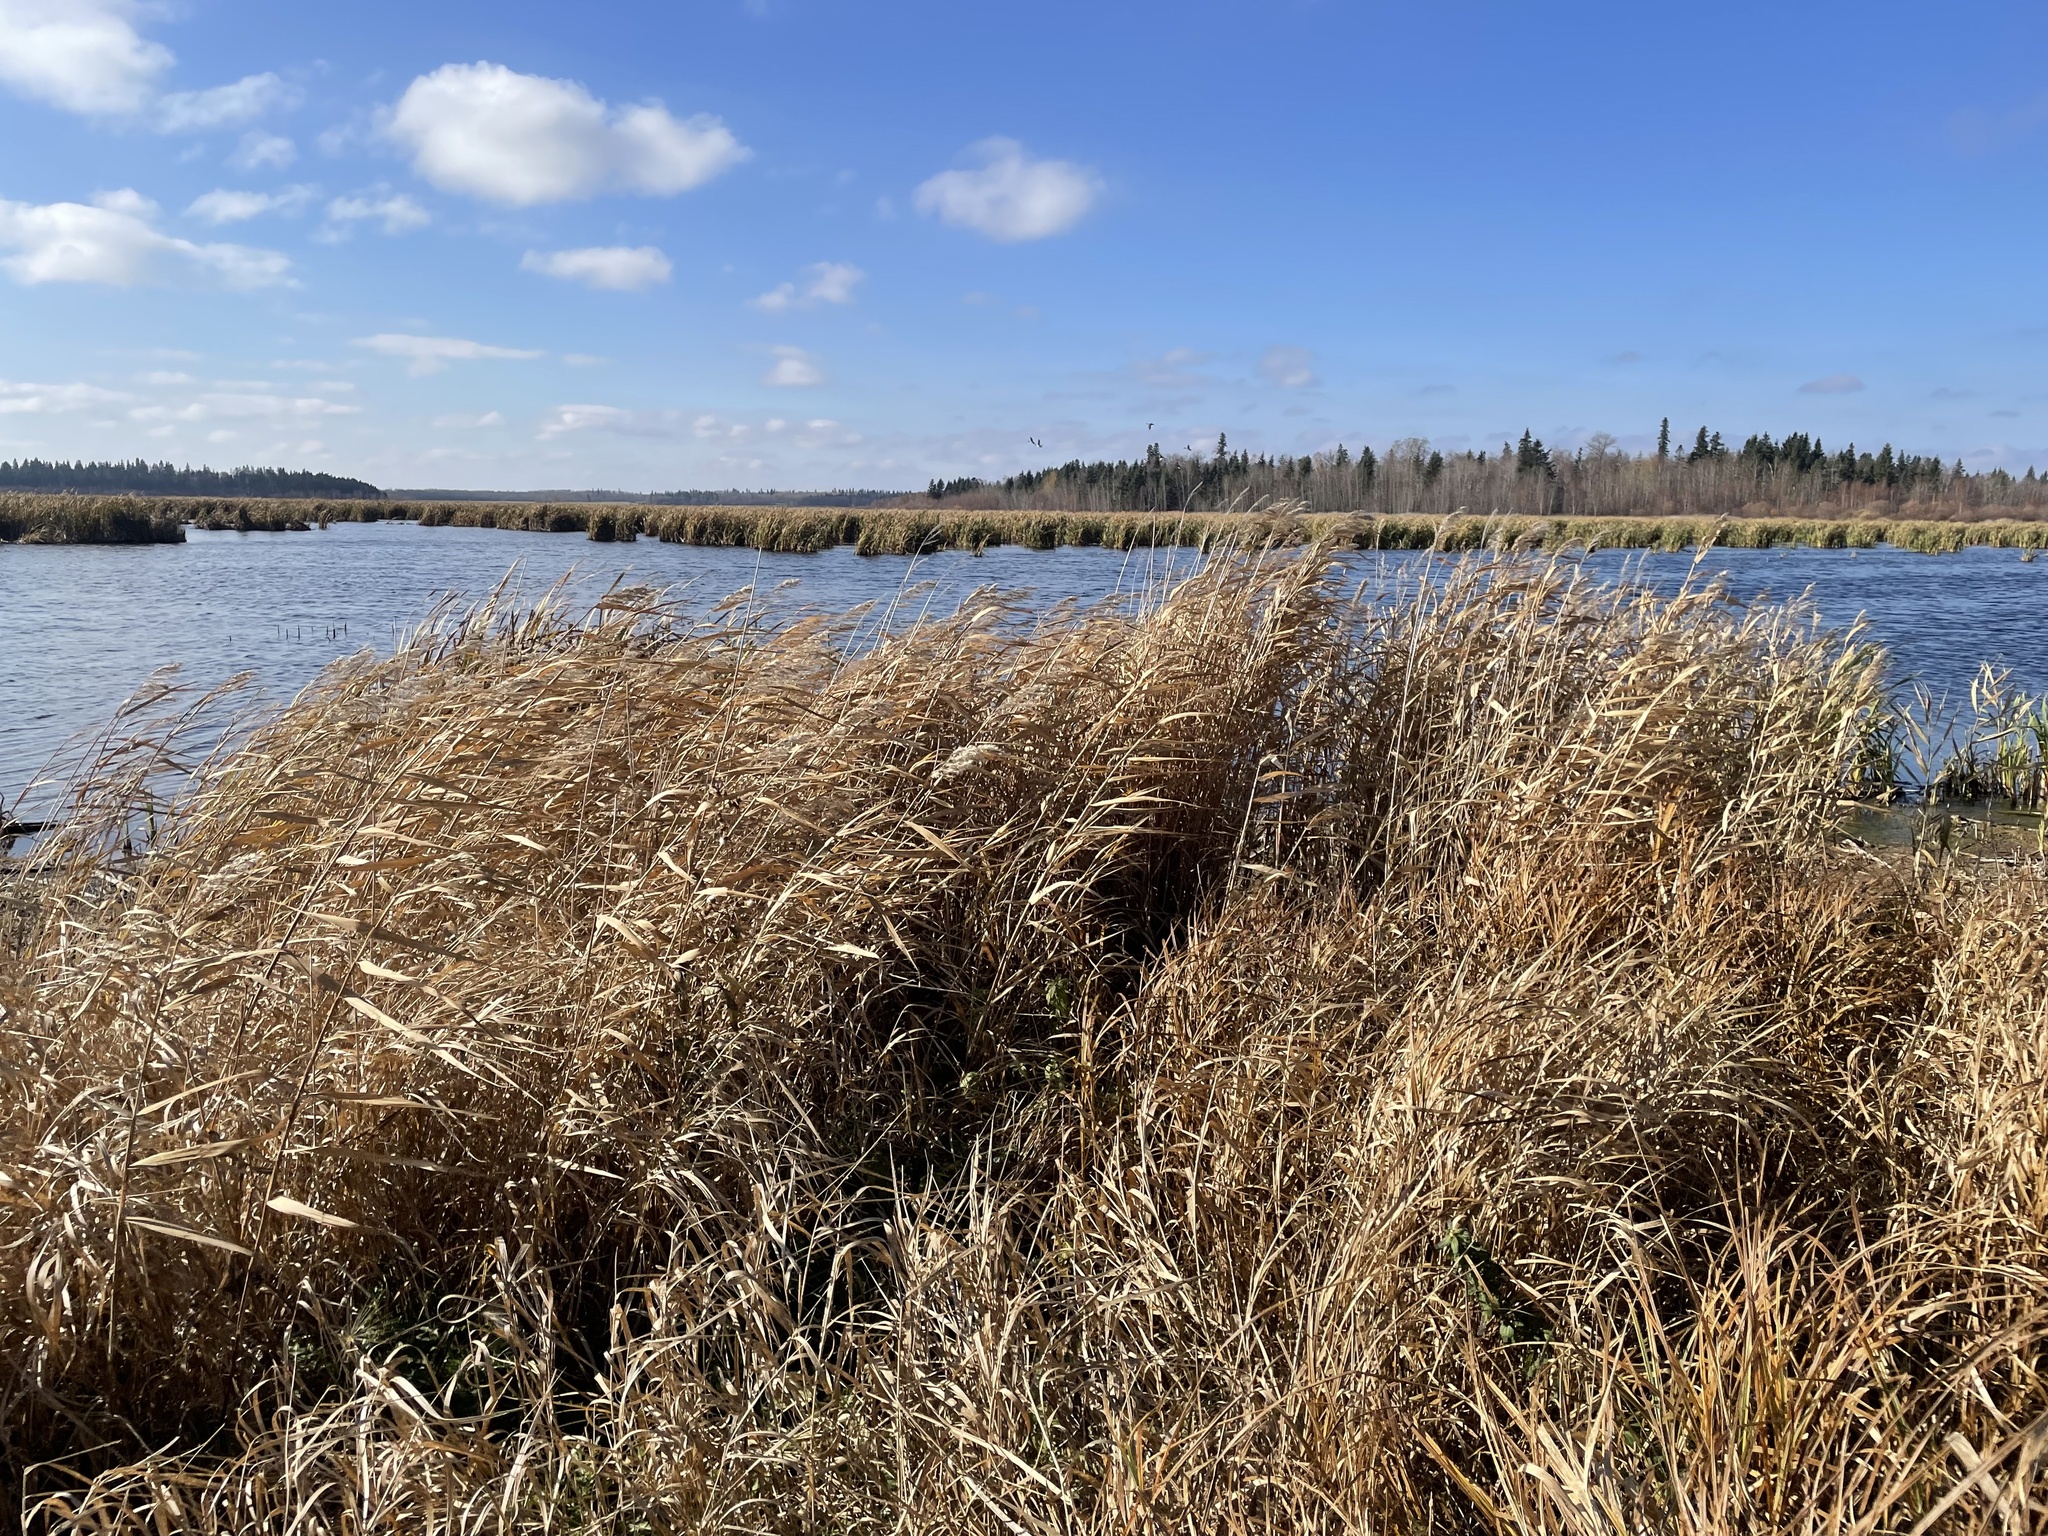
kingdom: Plantae
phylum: Tracheophyta
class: Liliopsida
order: Poales
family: Poaceae
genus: Phragmites
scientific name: Phragmites australis
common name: Common reed
